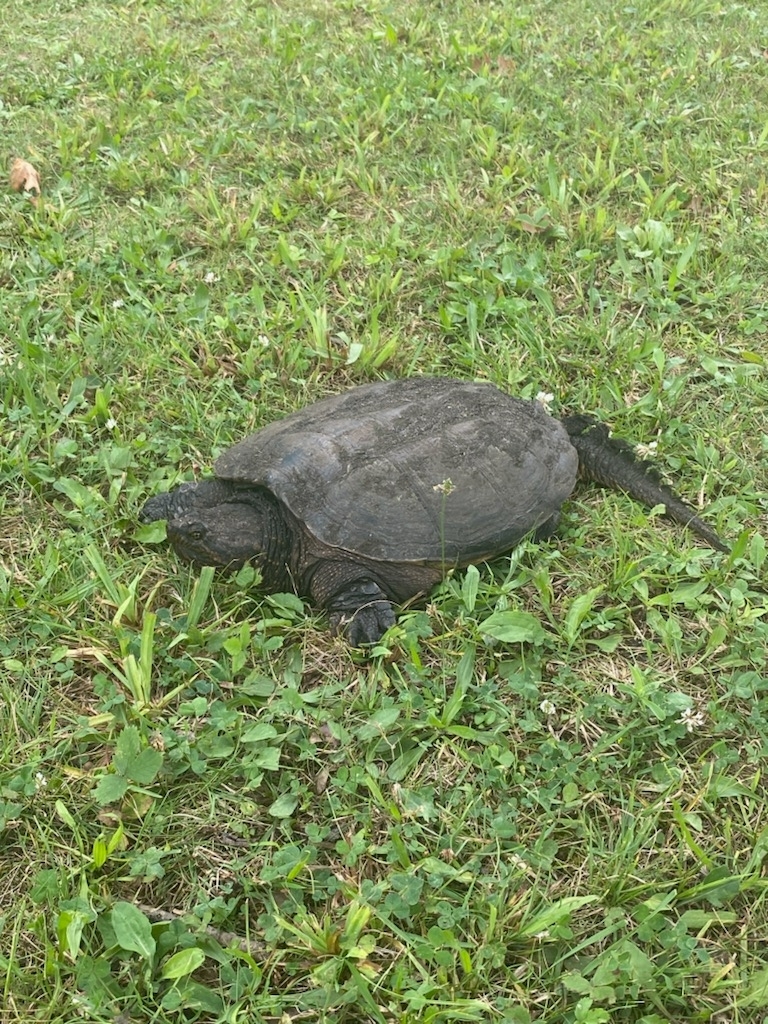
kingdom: Animalia
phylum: Chordata
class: Testudines
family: Chelydridae
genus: Chelydra
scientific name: Chelydra serpentina
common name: Common snapping turtle
